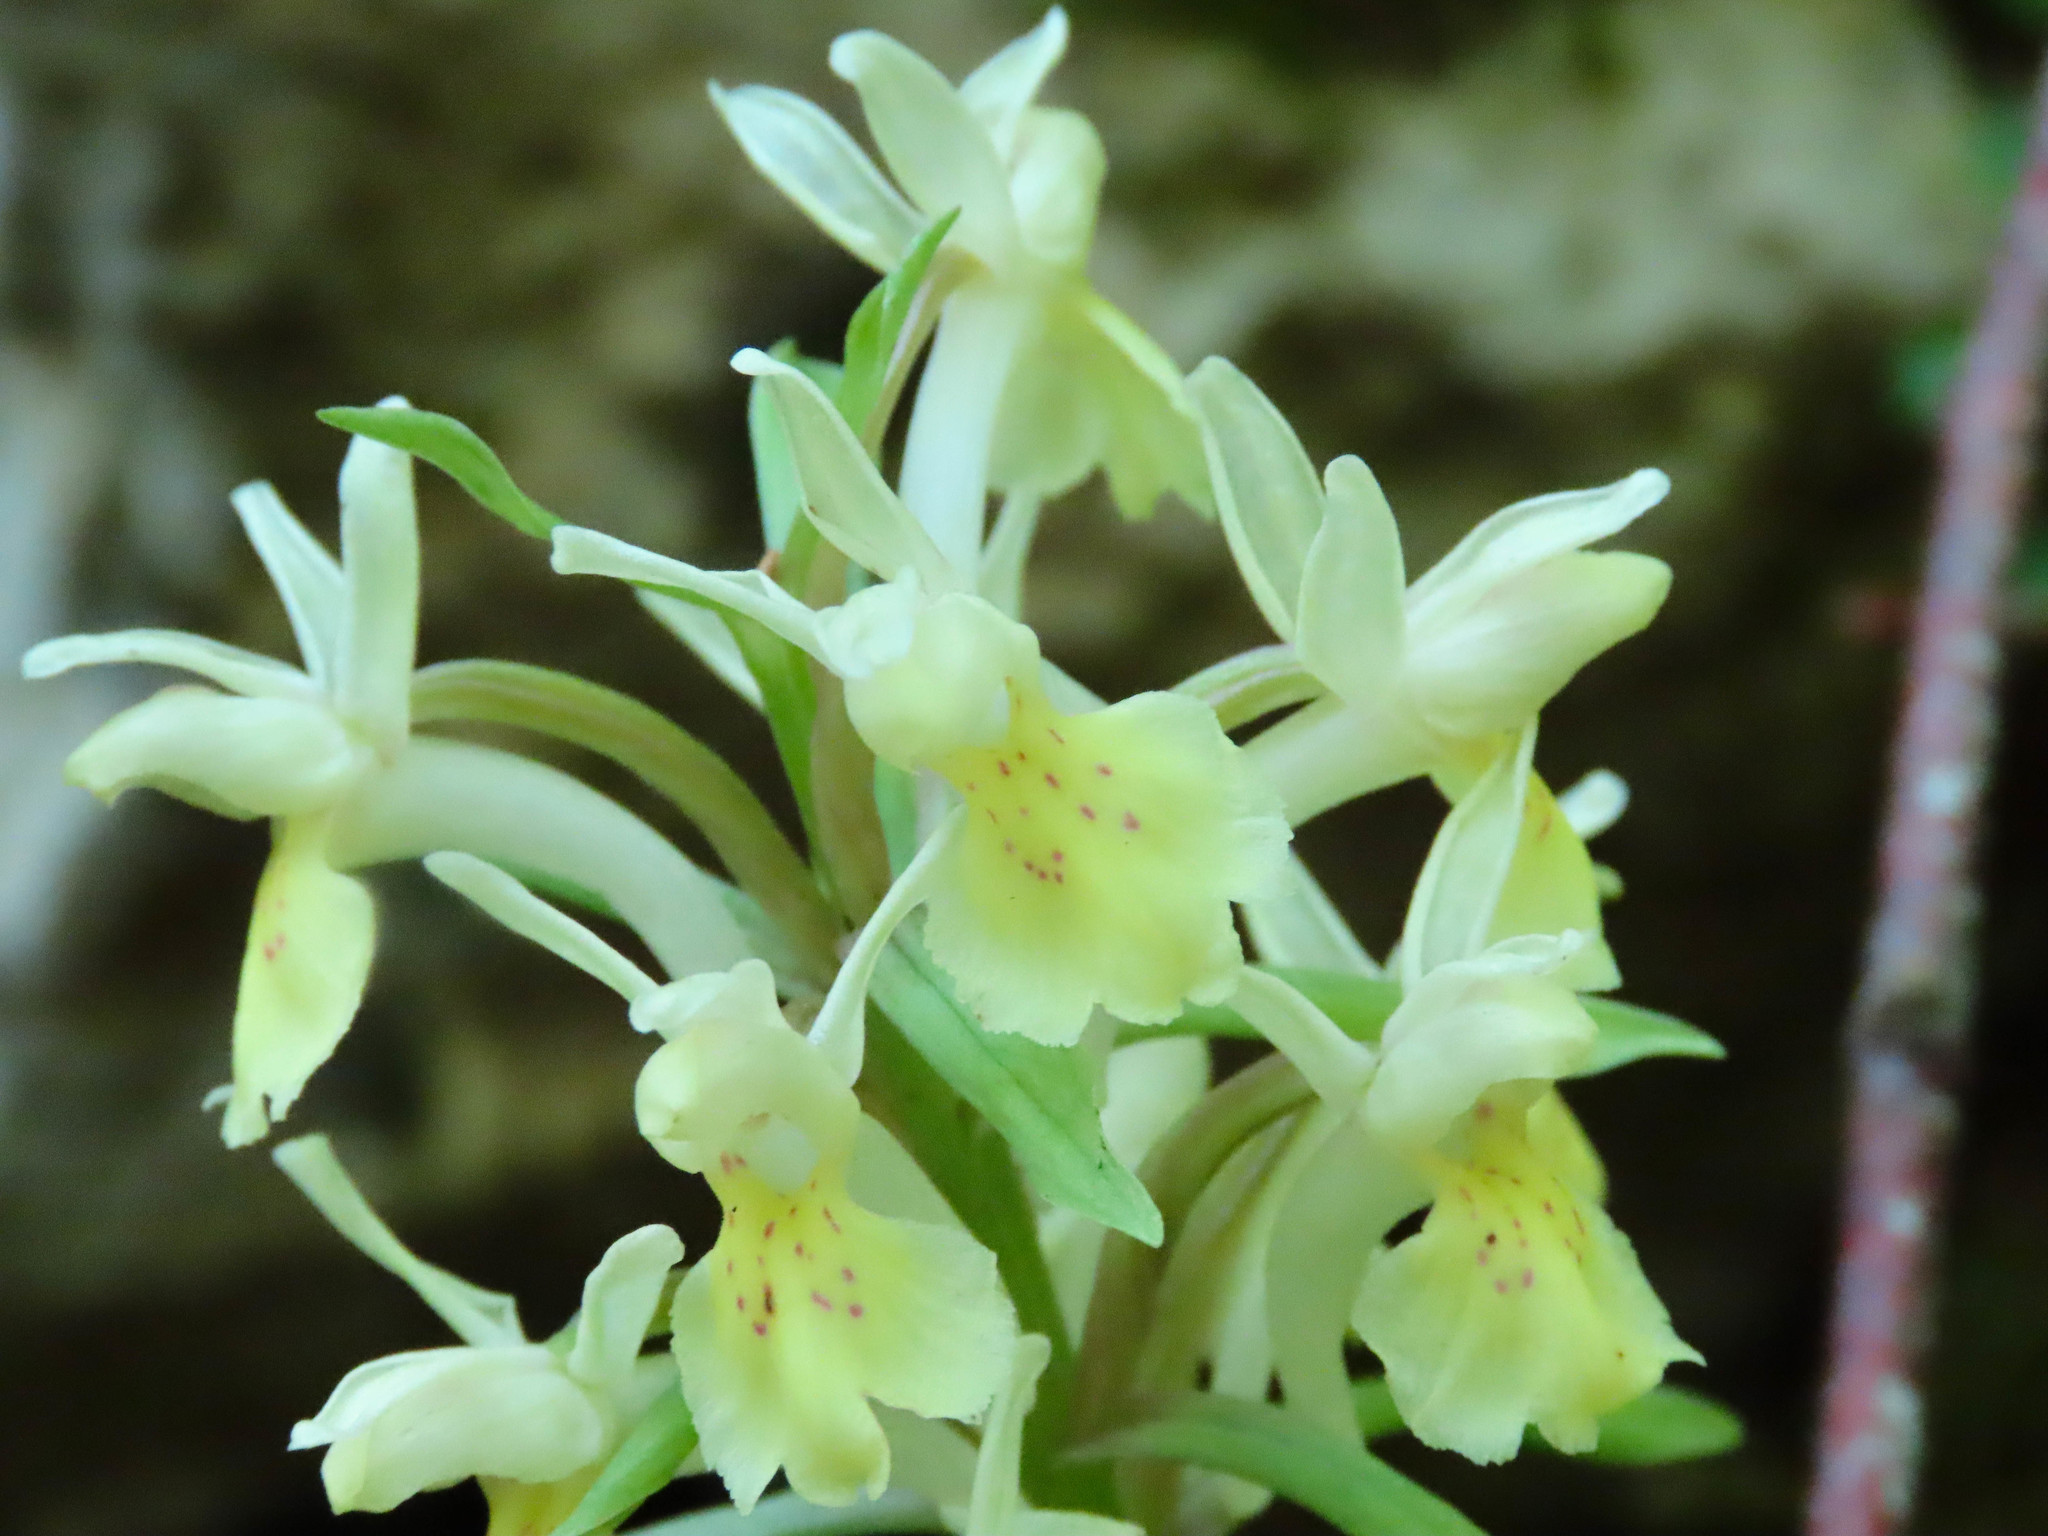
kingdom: Plantae
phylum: Tracheophyta
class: Liliopsida
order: Asparagales
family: Orchidaceae
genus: Dactylorhiza
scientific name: Dactylorhiza sambucina
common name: Elder-flowered orchid
